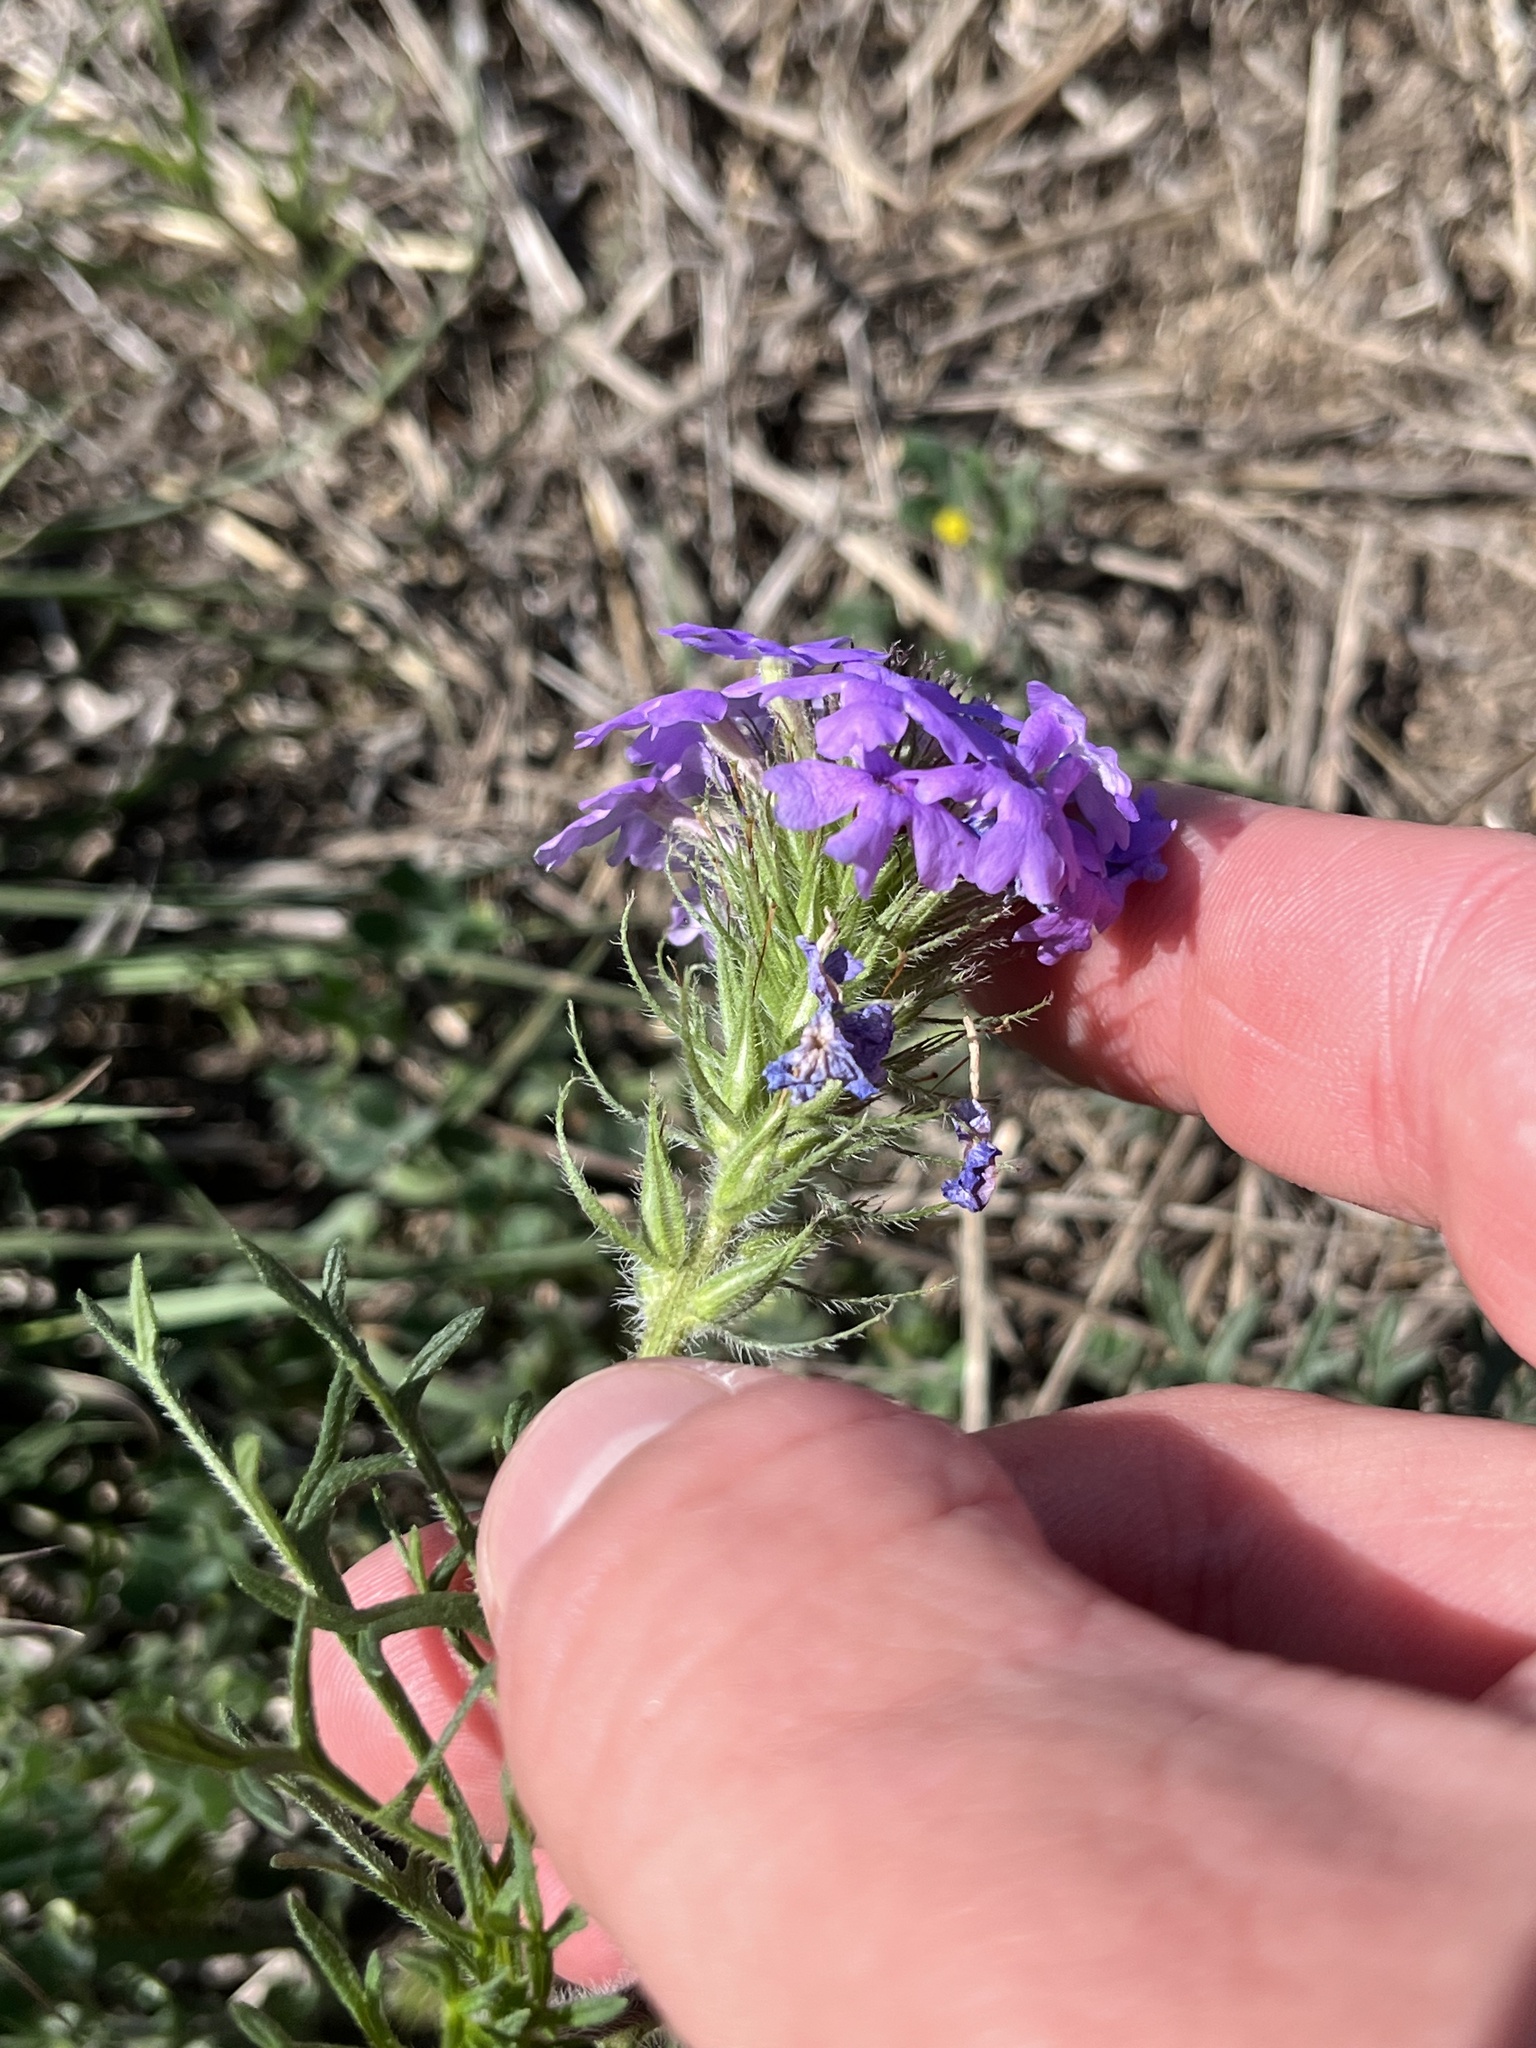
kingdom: Plantae
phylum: Tracheophyta
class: Magnoliopsida
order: Lamiales
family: Verbenaceae
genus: Verbena
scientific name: Verbena bipinnatifida
